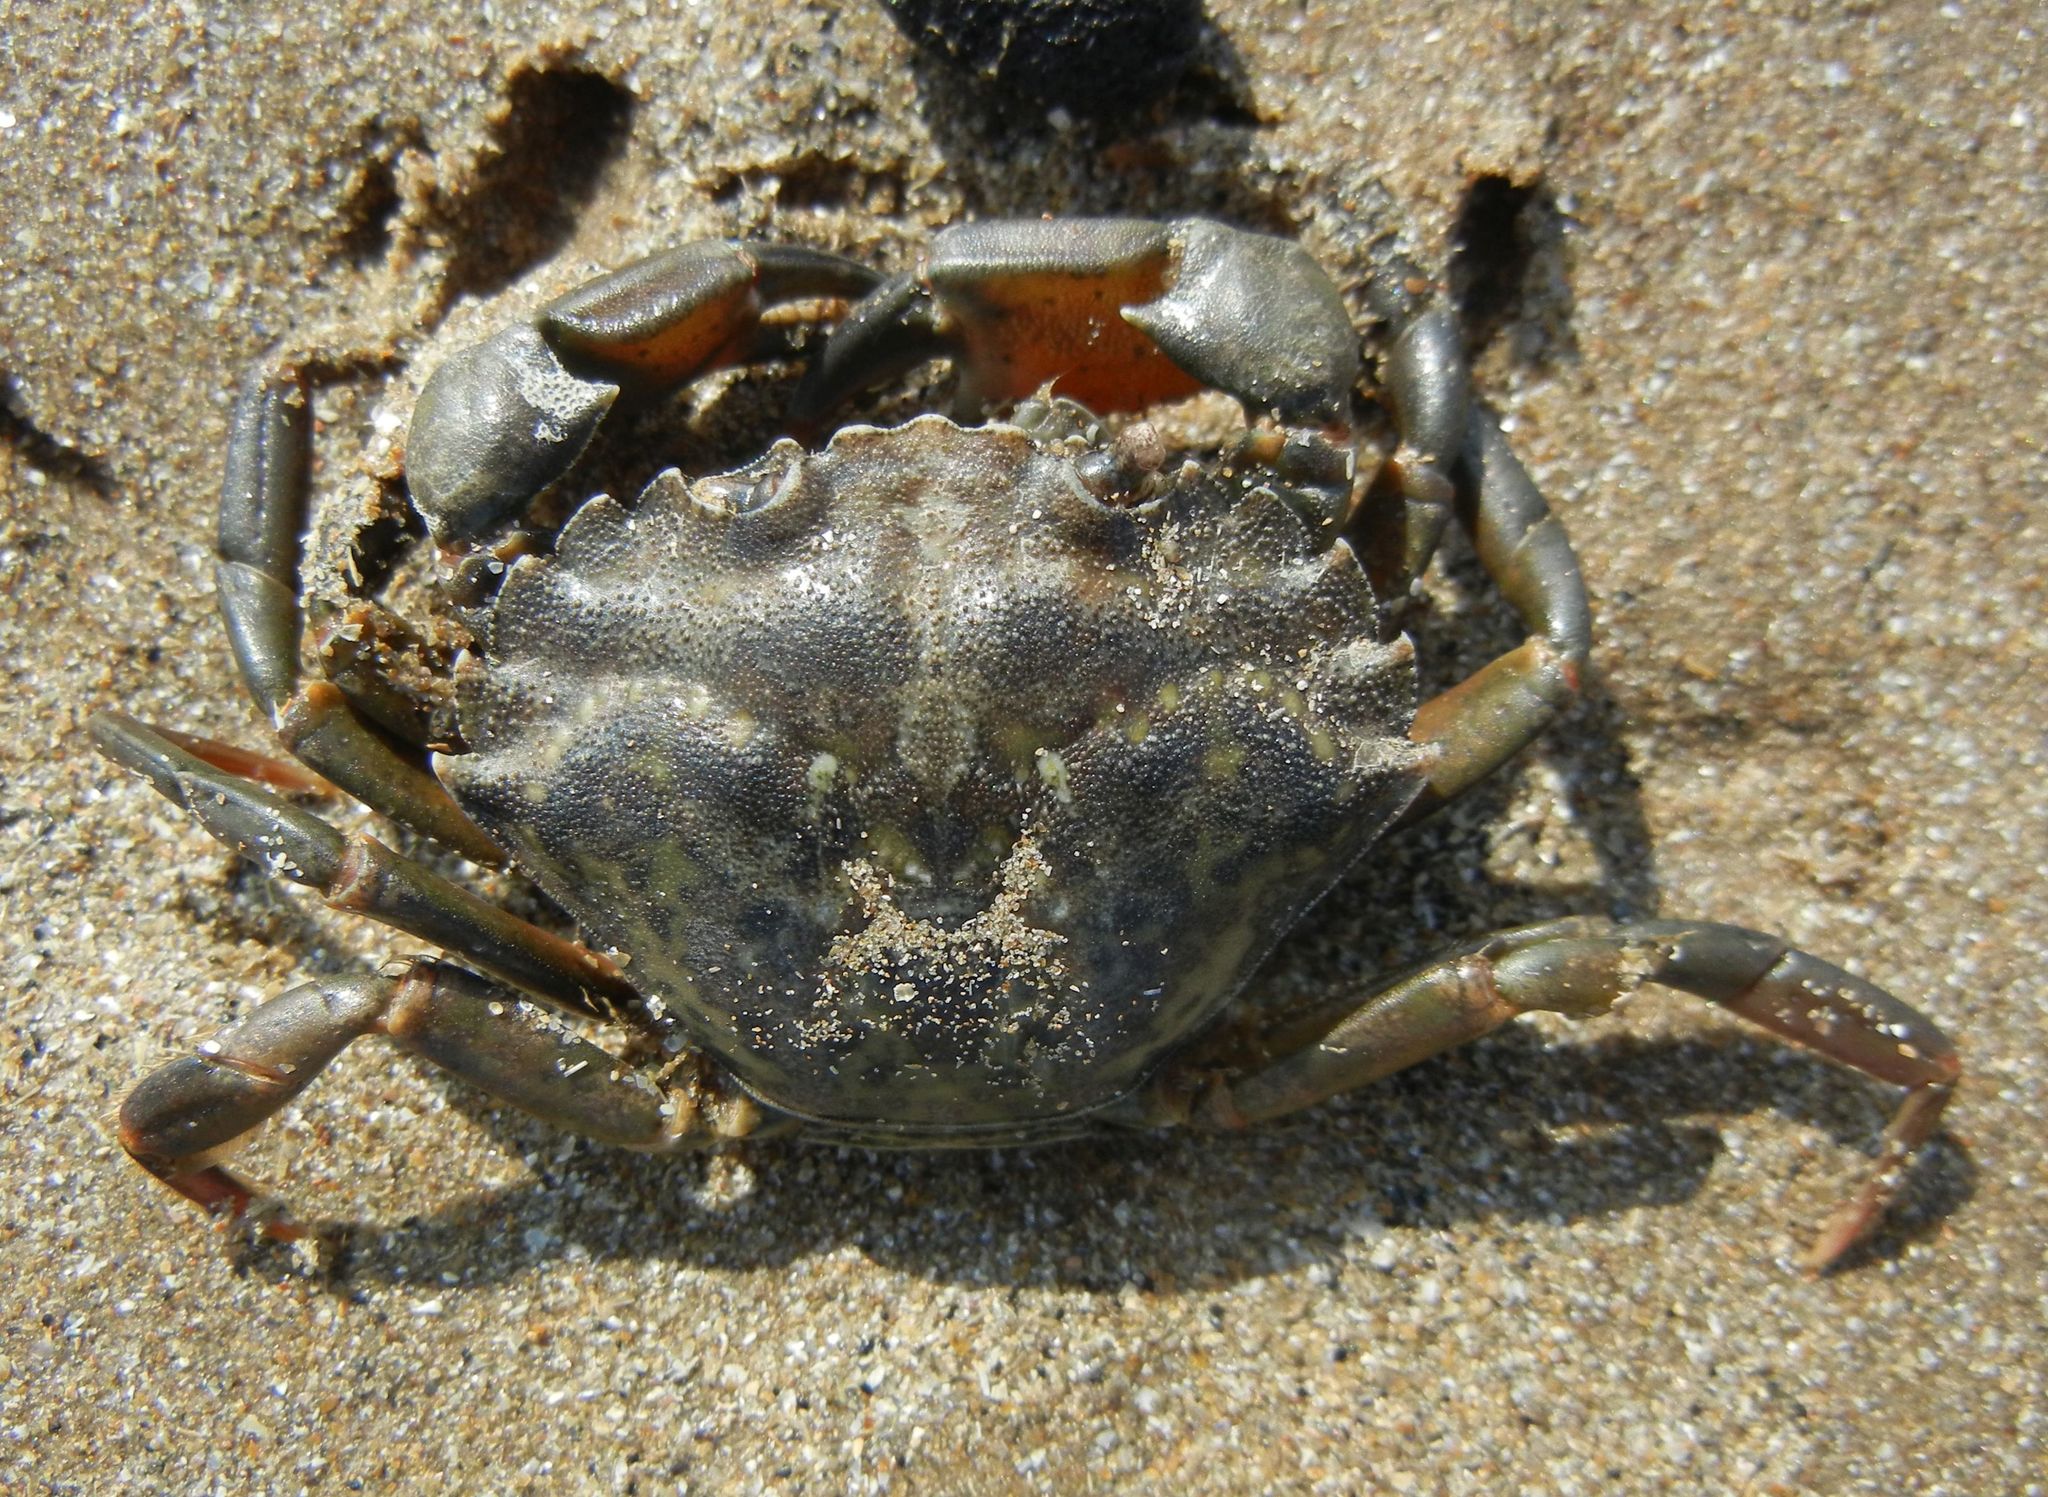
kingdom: Animalia
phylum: Arthropoda
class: Malacostraca
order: Decapoda
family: Carcinidae
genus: Carcinus
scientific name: Carcinus maenas
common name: European green crab
